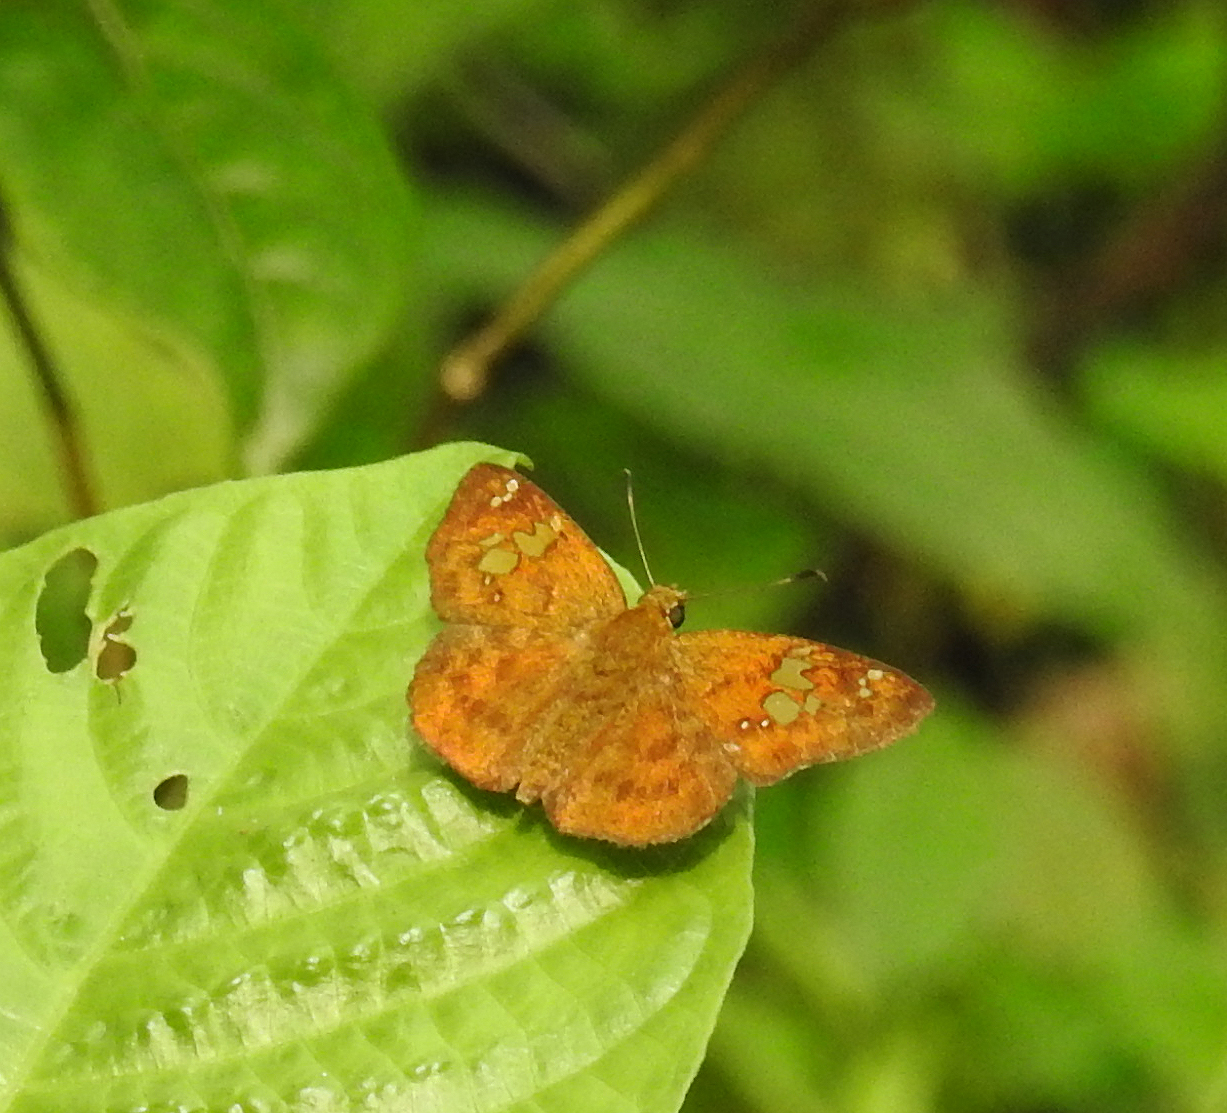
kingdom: Animalia
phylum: Arthropoda
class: Insecta
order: Lepidoptera
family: Hesperiidae
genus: Pseudocoladenia
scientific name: Pseudocoladenia dan
